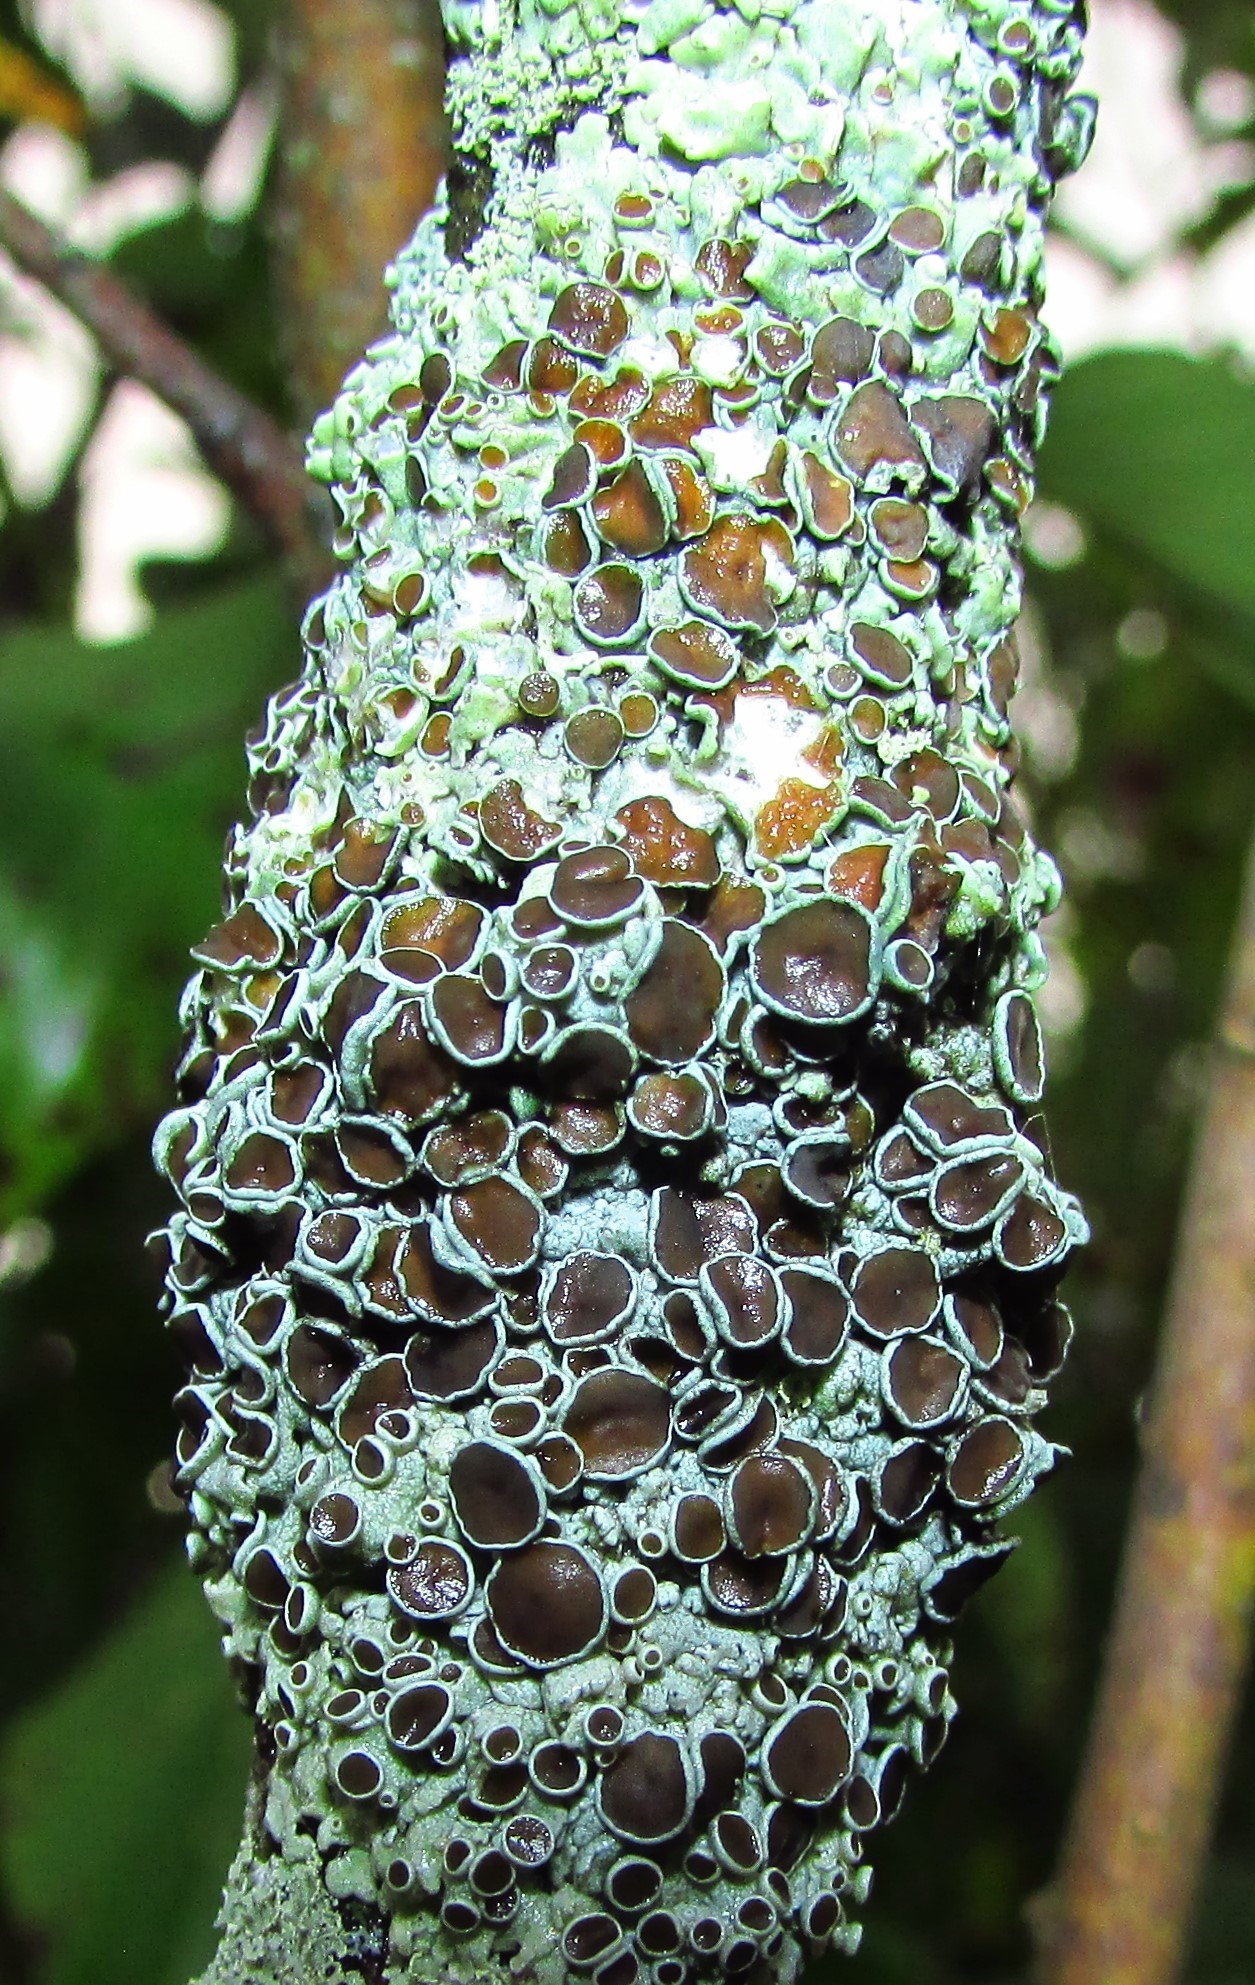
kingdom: Fungi
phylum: Ascomycota
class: Lecanoromycetes
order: Caliciales
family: Physciaceae
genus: Physcia
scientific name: Physcia stellaris
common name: Star rosette lichen
